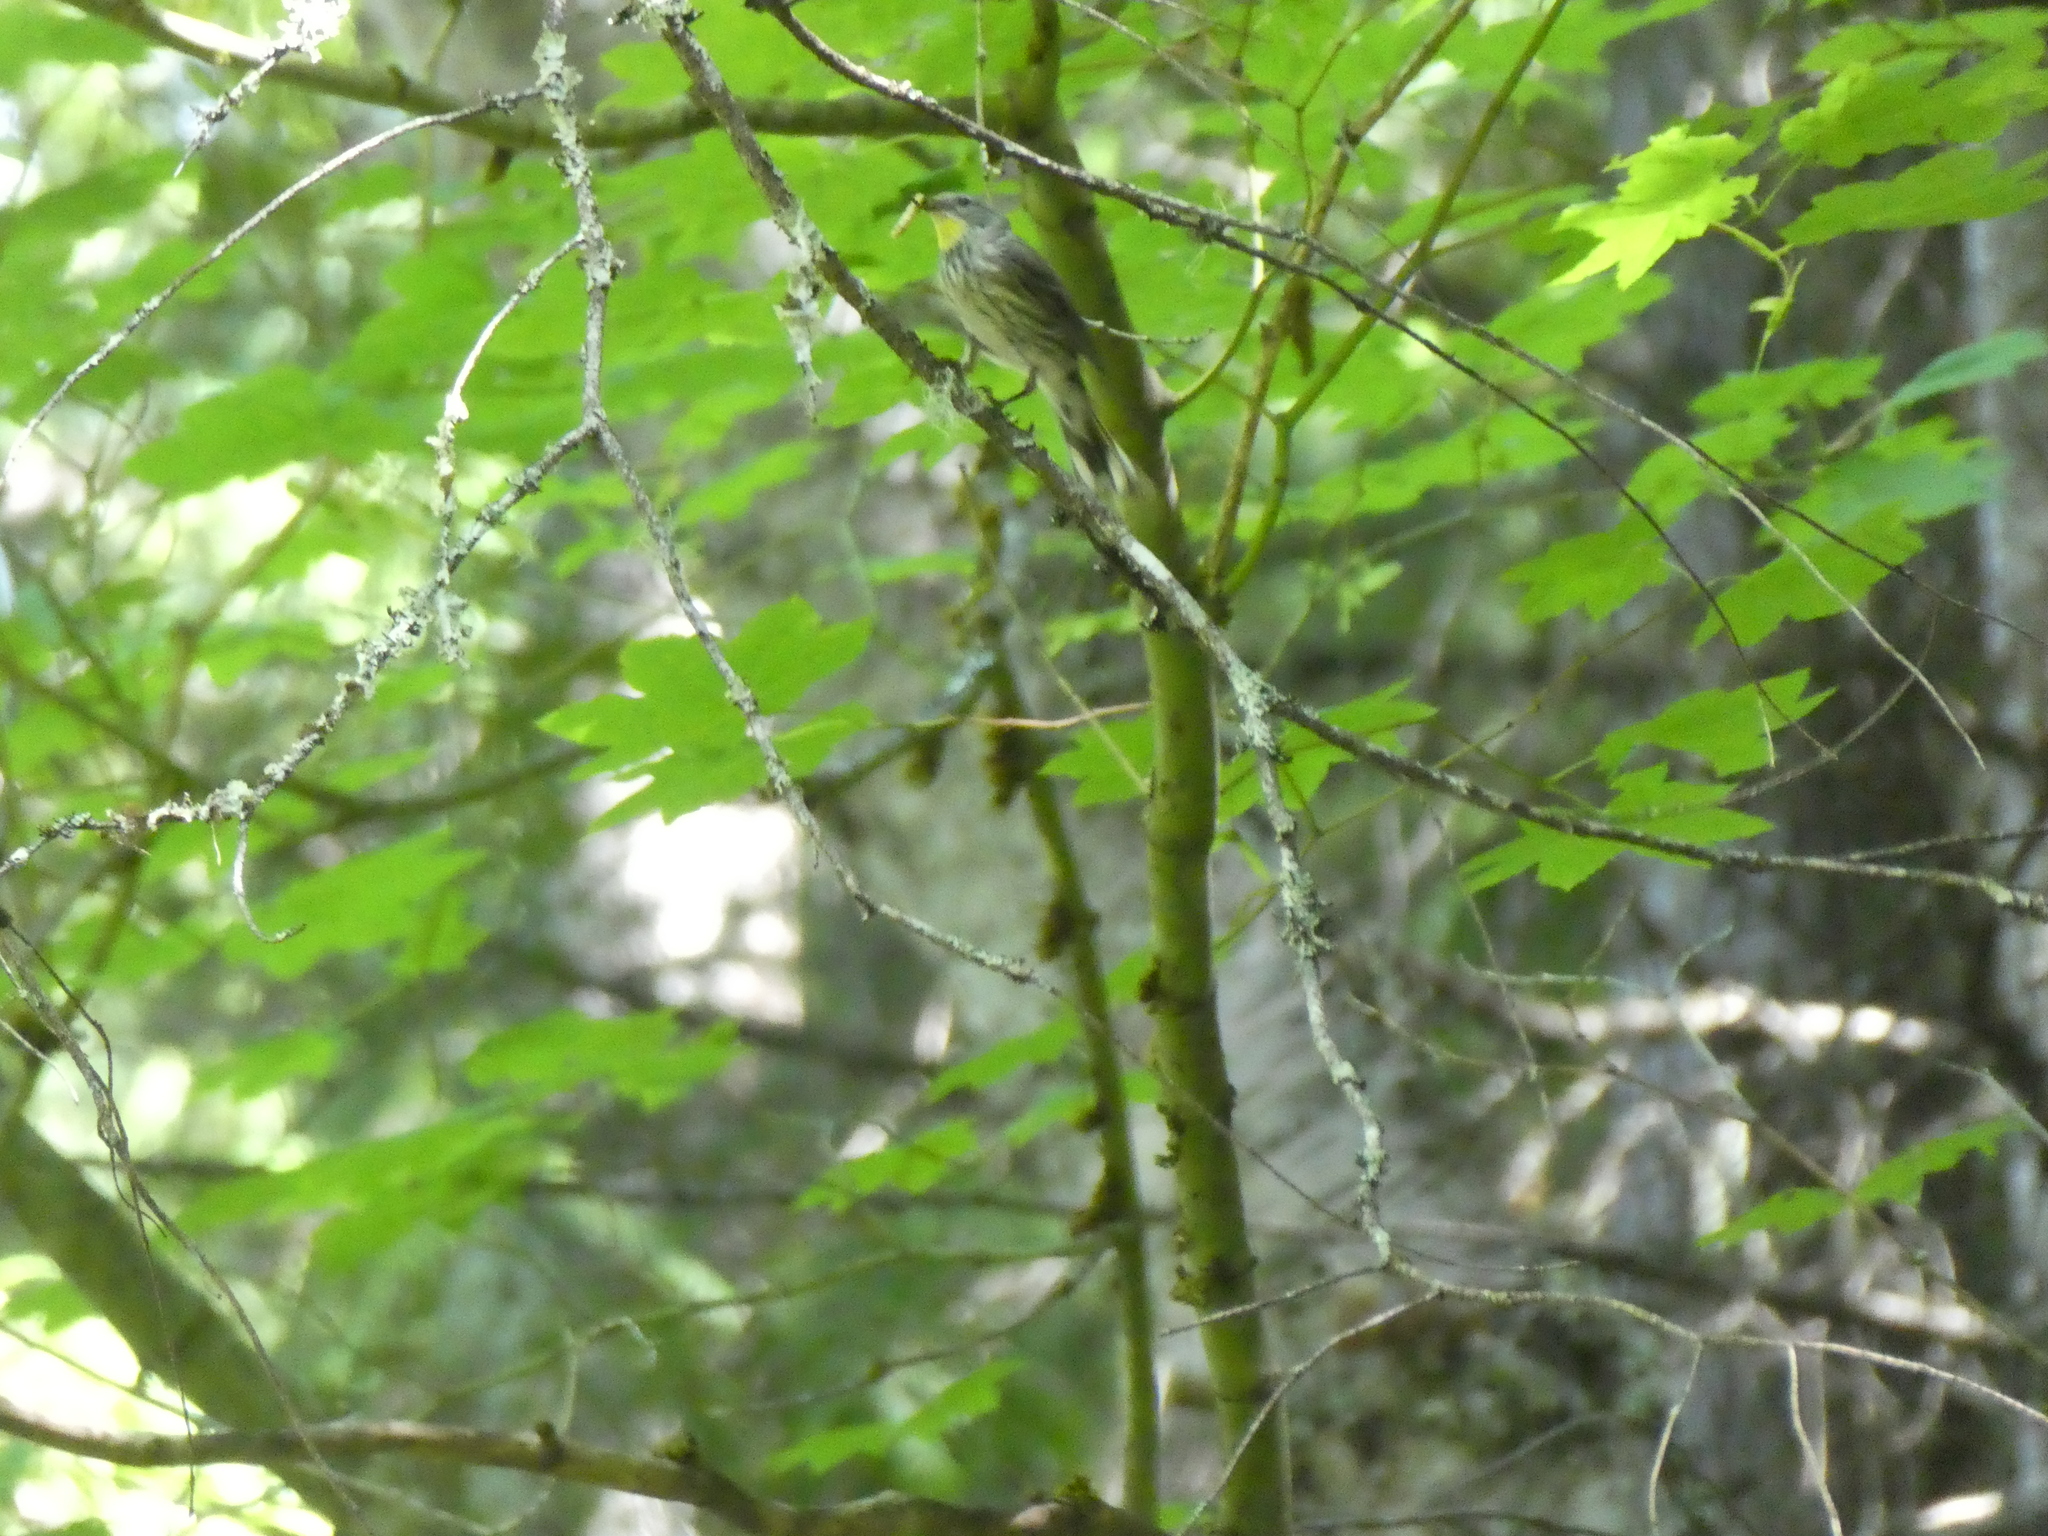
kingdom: Animalia
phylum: Chordata
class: Aves
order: Passeriformes
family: Parulidae
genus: Setophaga
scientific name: Setophaga auduboni
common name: Audubon's warbler
